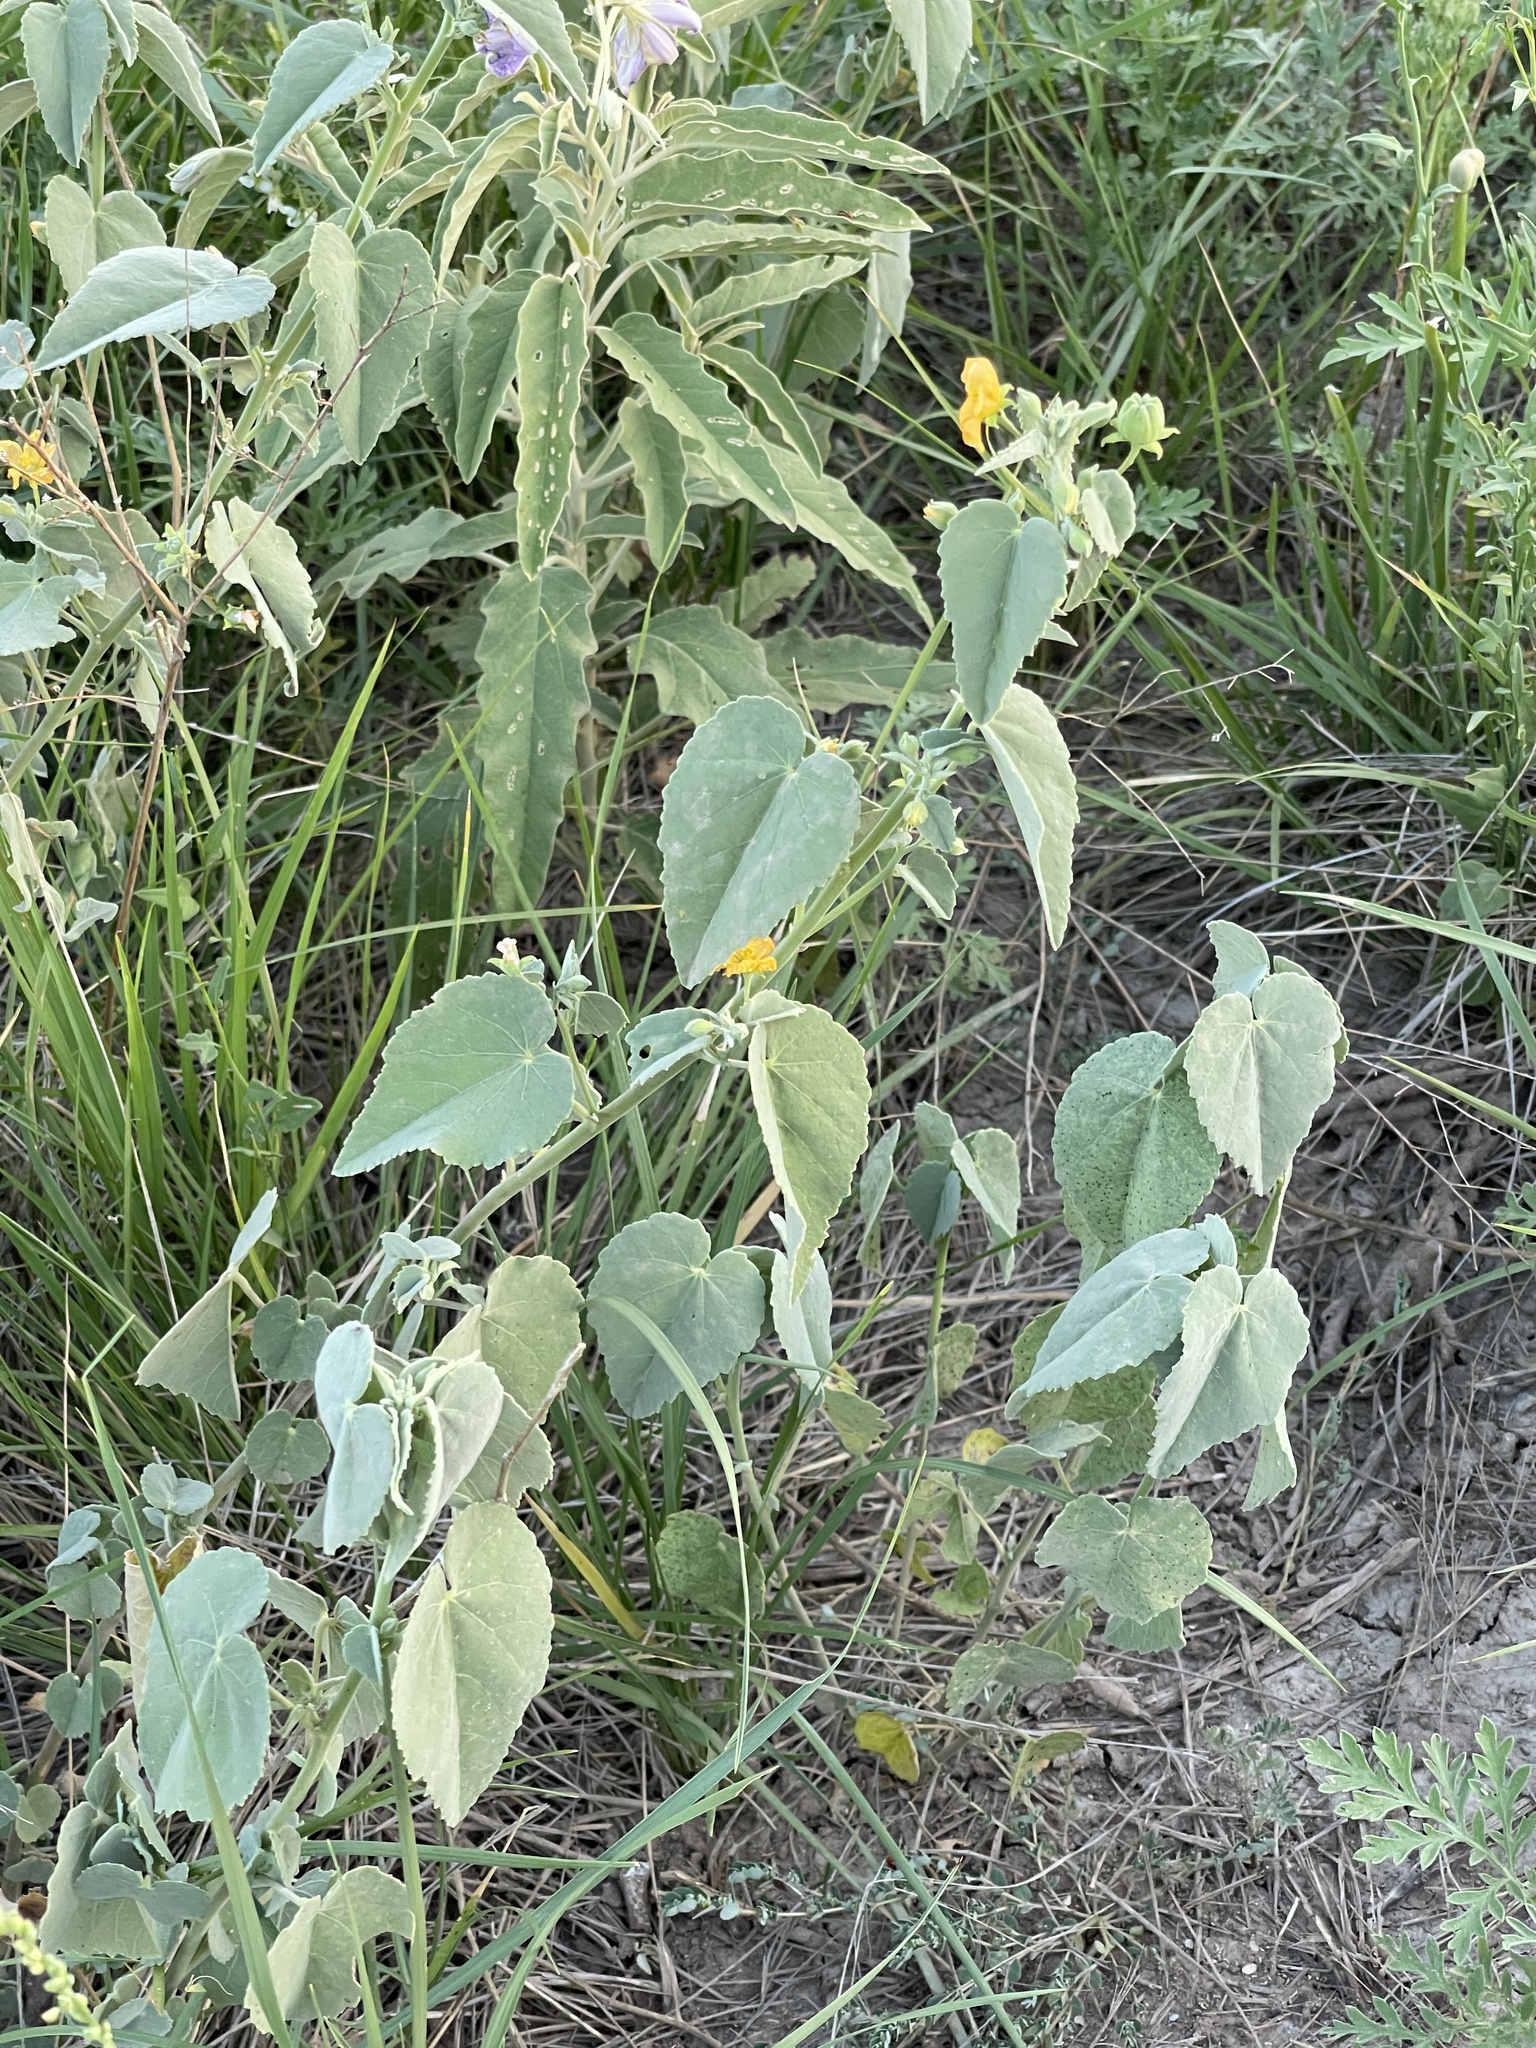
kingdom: Plantae
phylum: Tracheophyta
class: Magnoliopsida
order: Malvales
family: Malvaceae
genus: Abutilon
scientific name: Abutilon fruticosum
